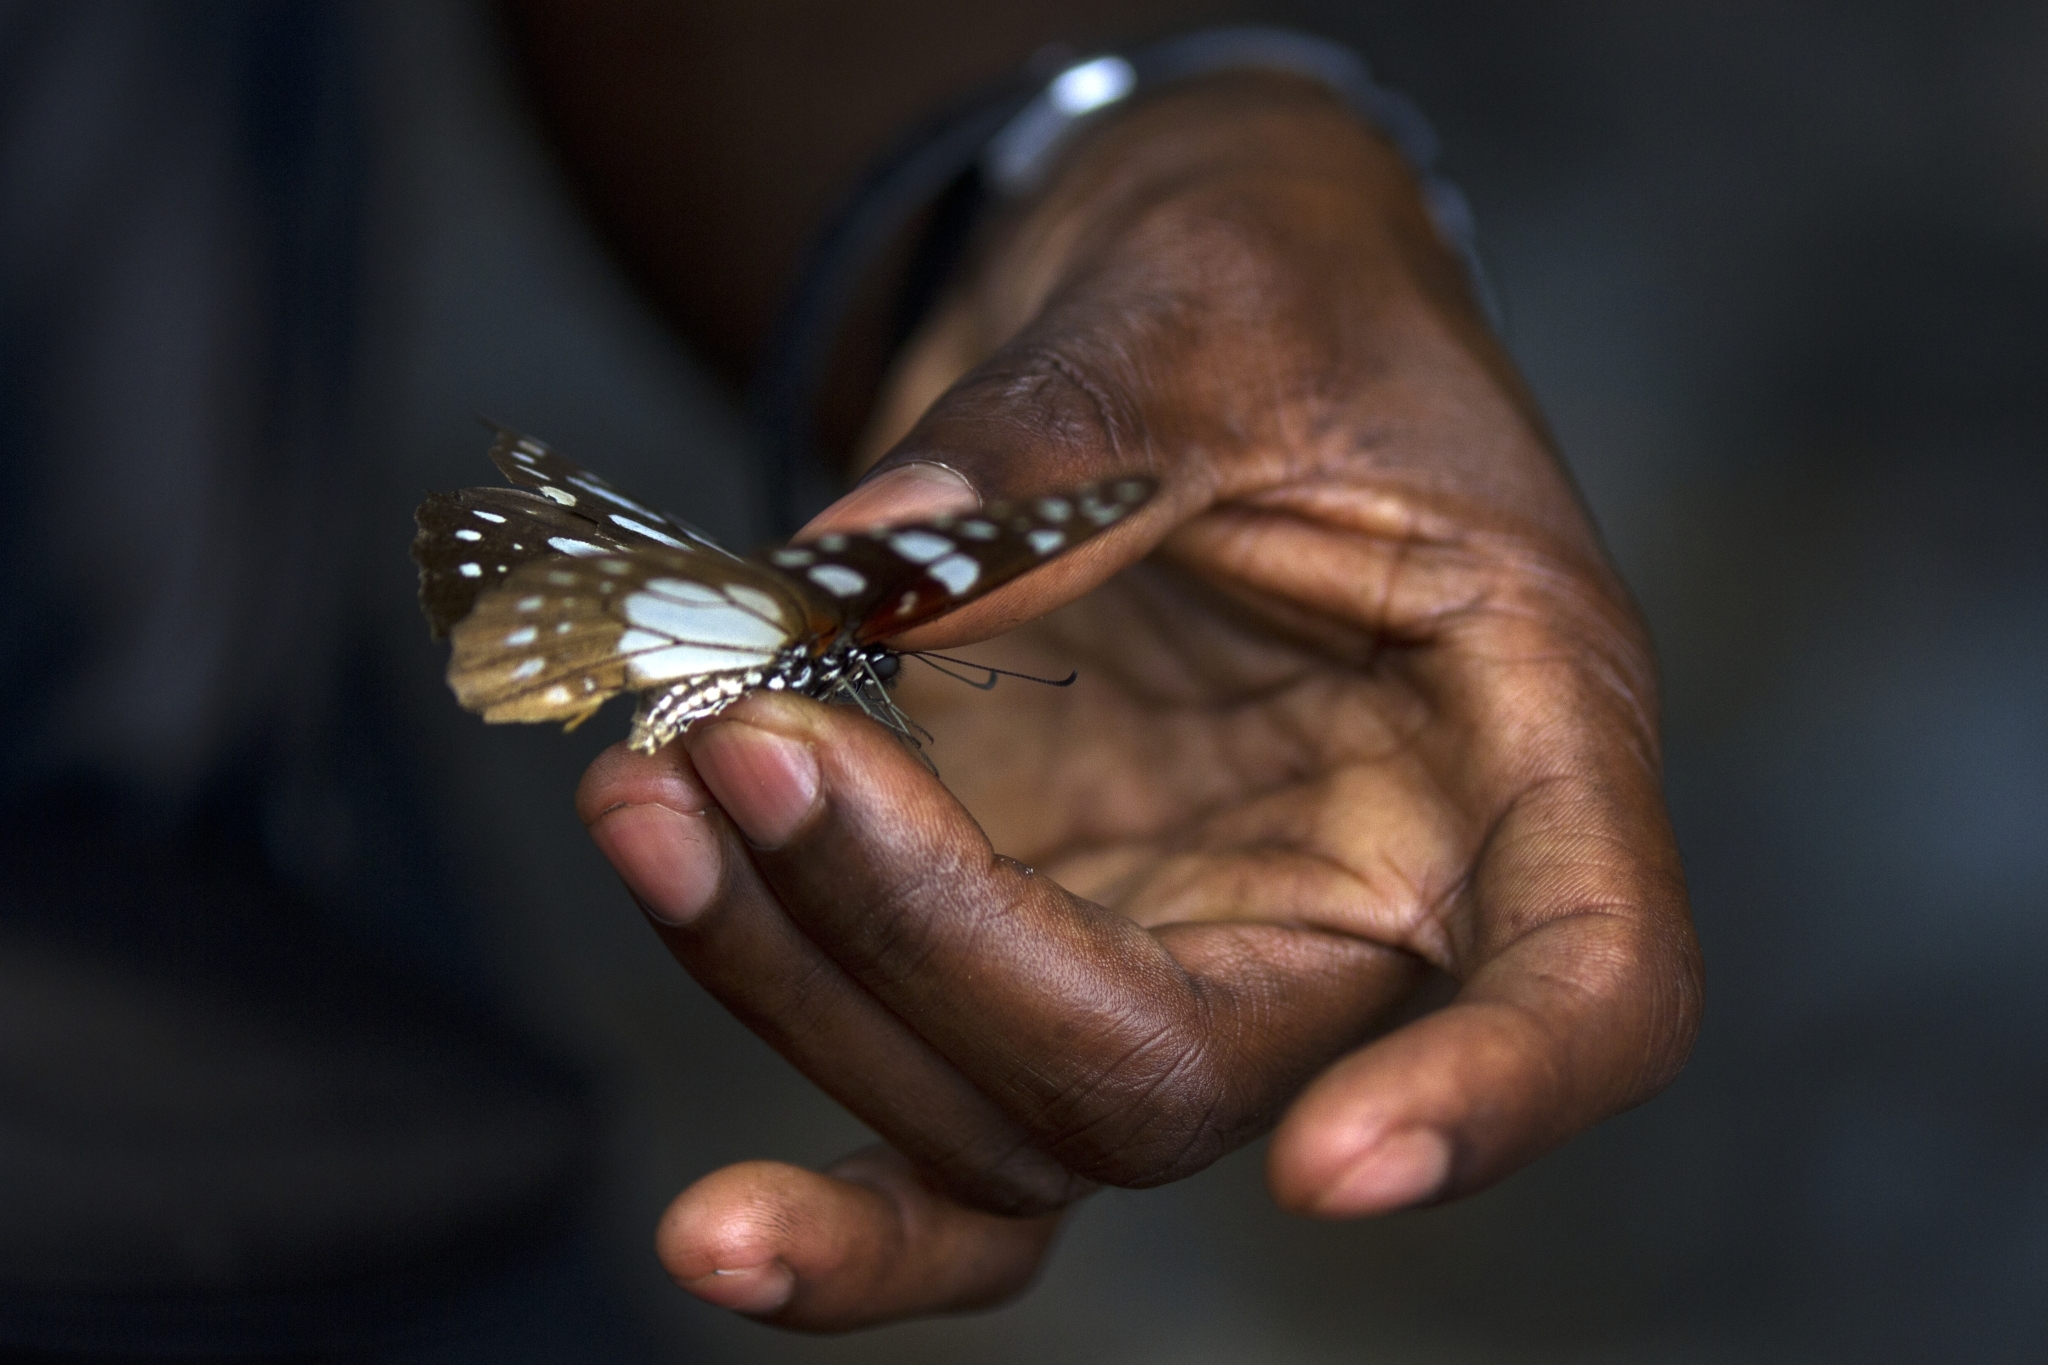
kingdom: Animalia
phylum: Arthropoda
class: Insecta
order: Lepidoptera
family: Papilionidae
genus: Graphium
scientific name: Graphium leonidas
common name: Common graphium
